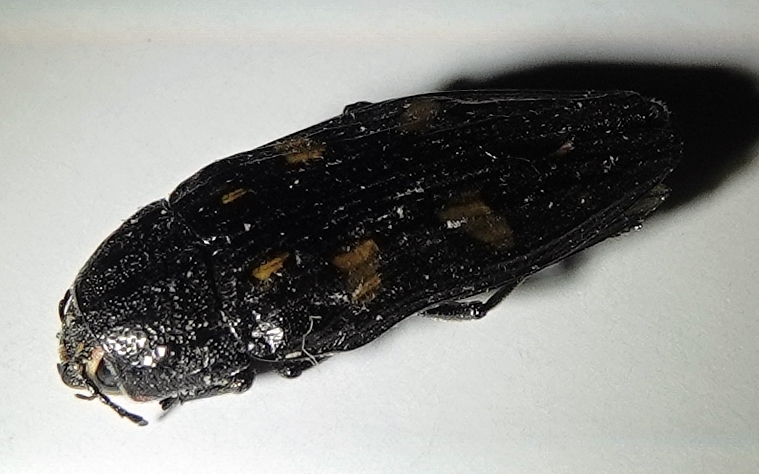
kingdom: Animalia
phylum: Arthropoda
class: Insecta
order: Coleoptera
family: Buprestidae
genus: Buprestis
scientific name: Buprestis consularis
